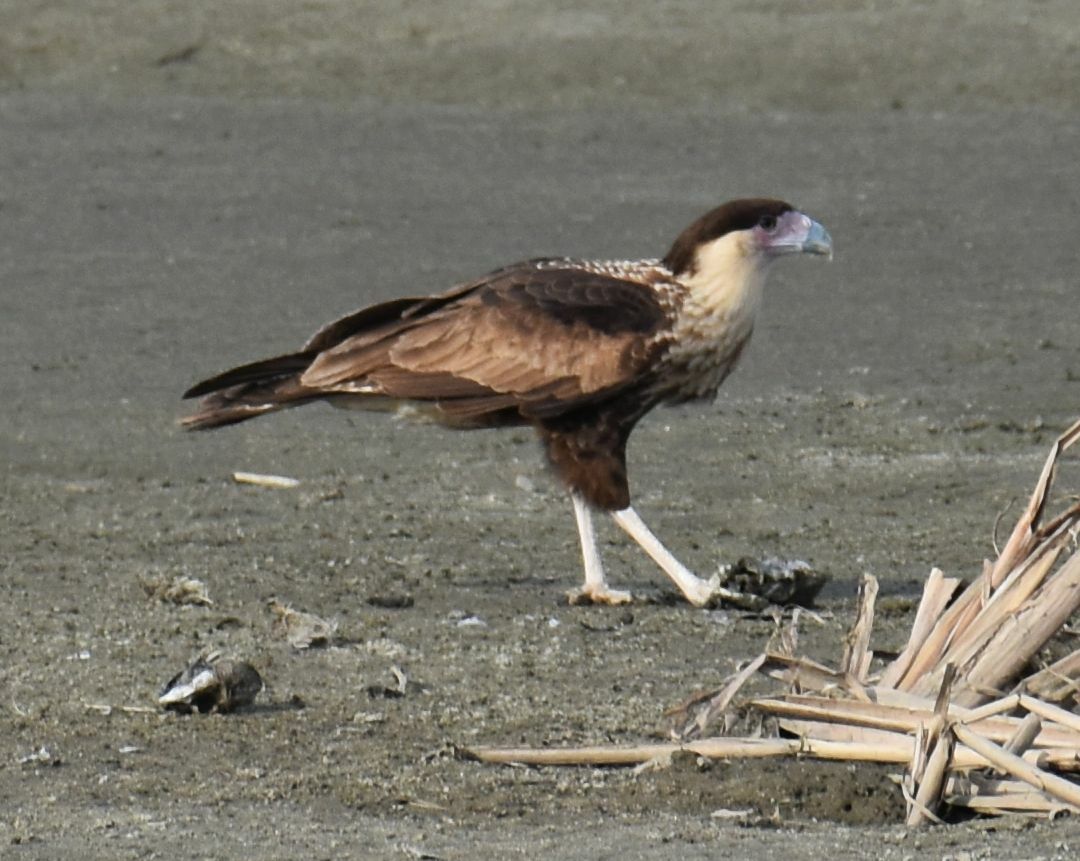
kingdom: Animalia
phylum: Chordata
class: Aves
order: Falconiformes
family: Falconidae
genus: Caracara
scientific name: Caracara plancus
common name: Southern caracara
